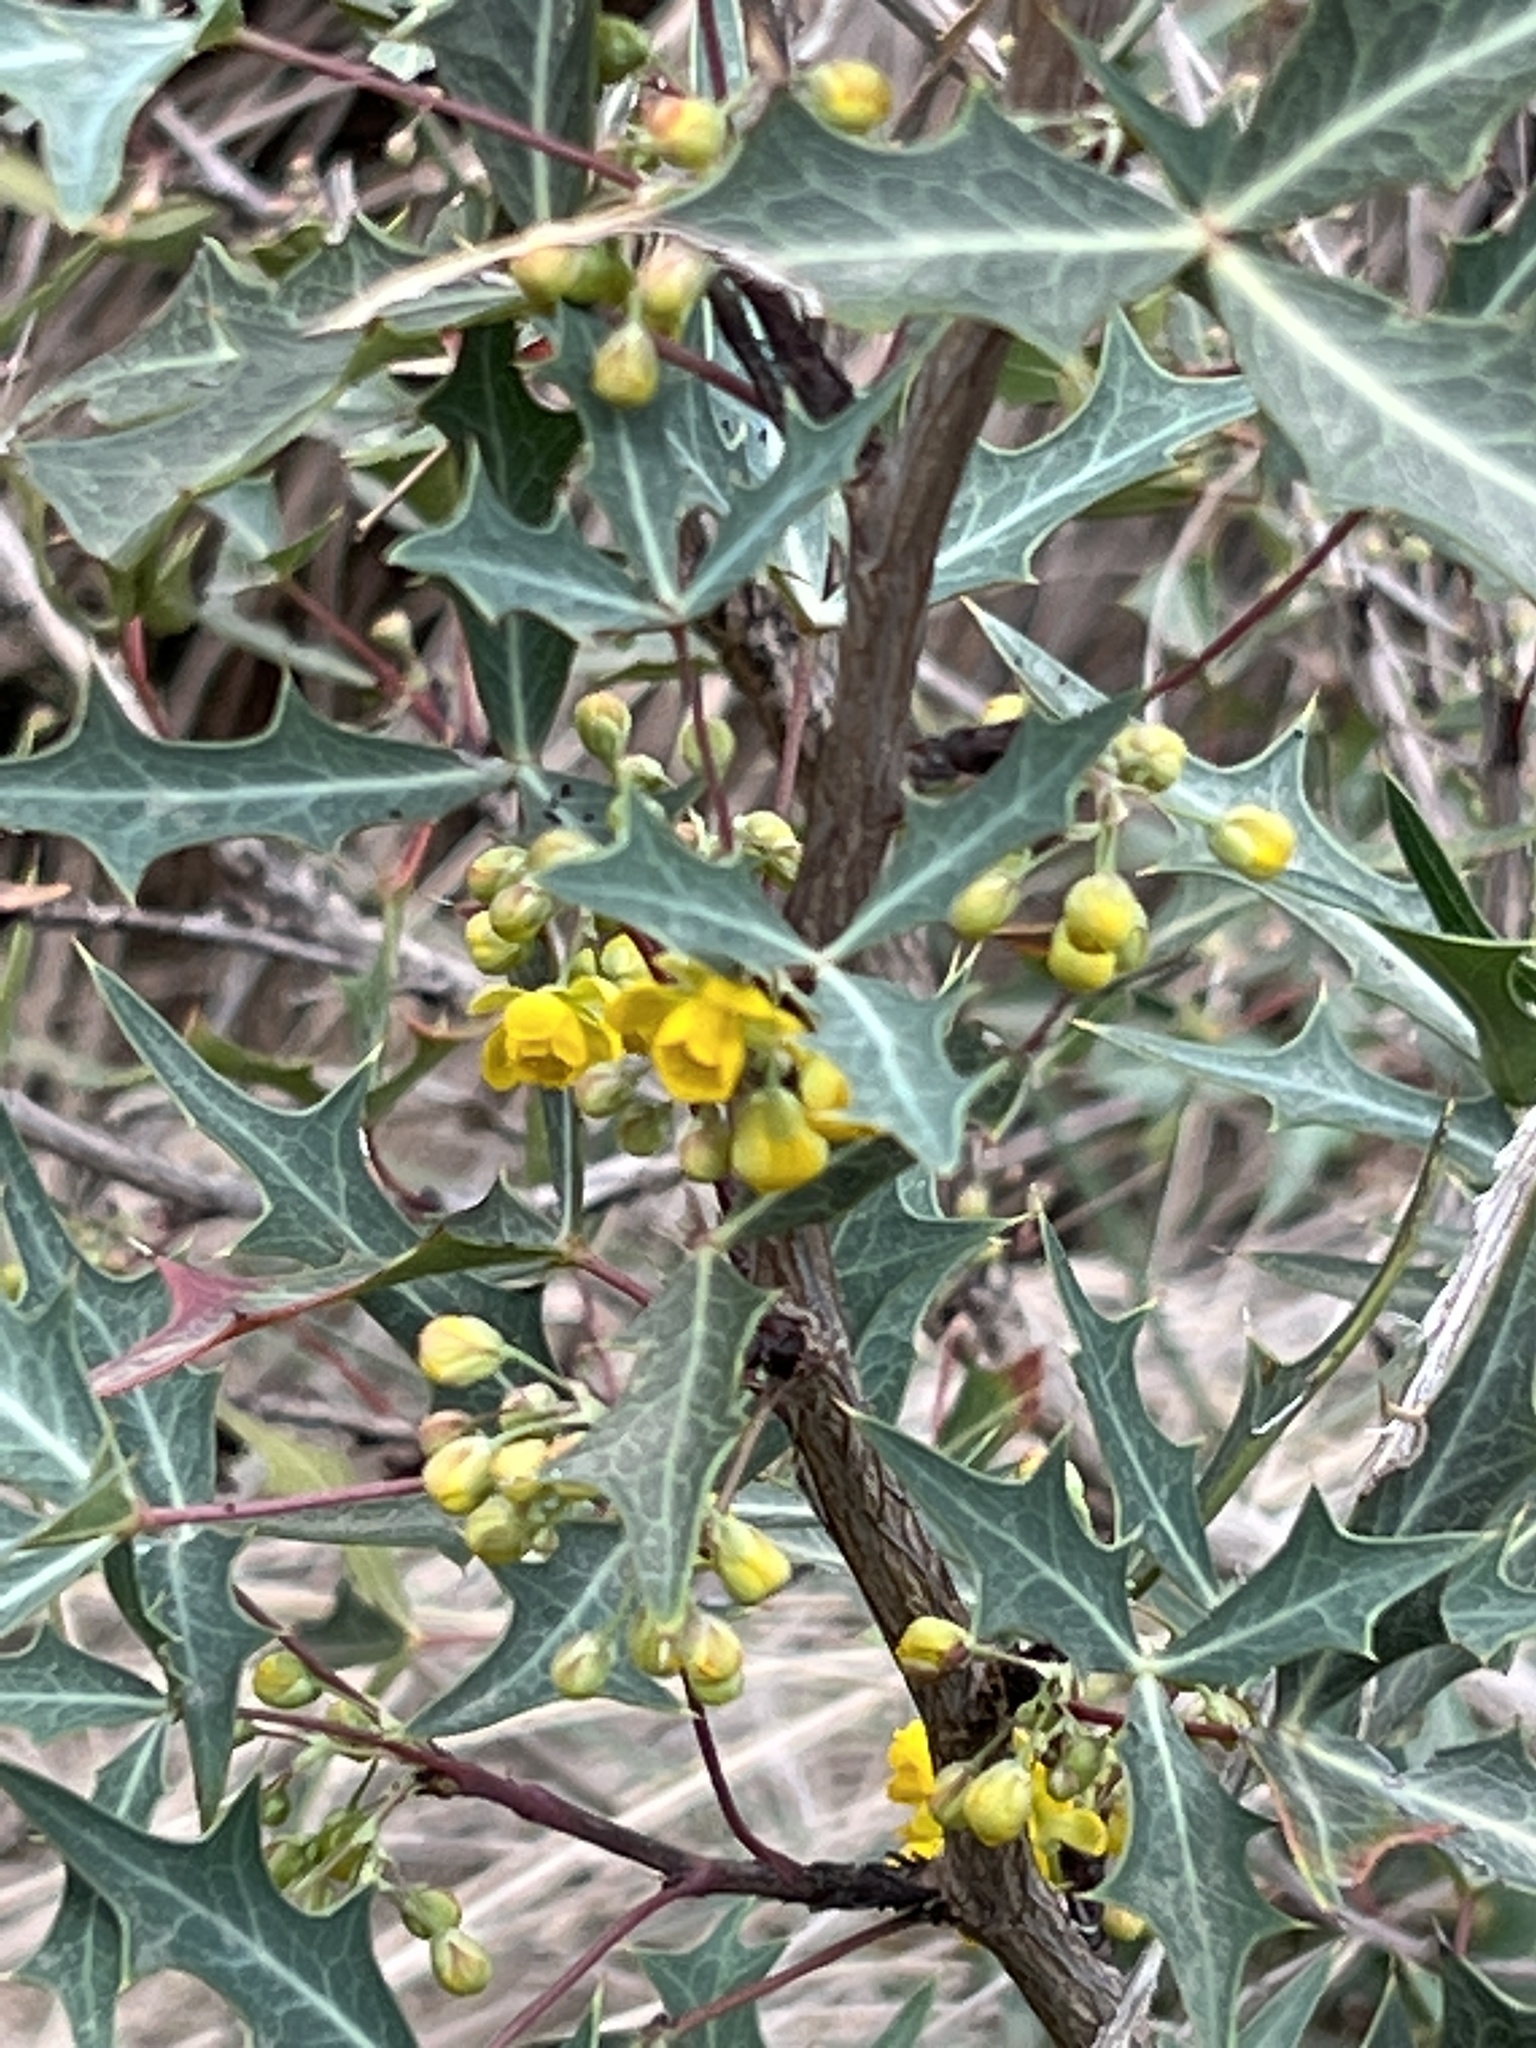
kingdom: Plantae
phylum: Tracheophyta
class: Magnoliopsida
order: Ranunculales
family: Berberidaceae
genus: Alloberberis
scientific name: Alloberberis trifoliolata
